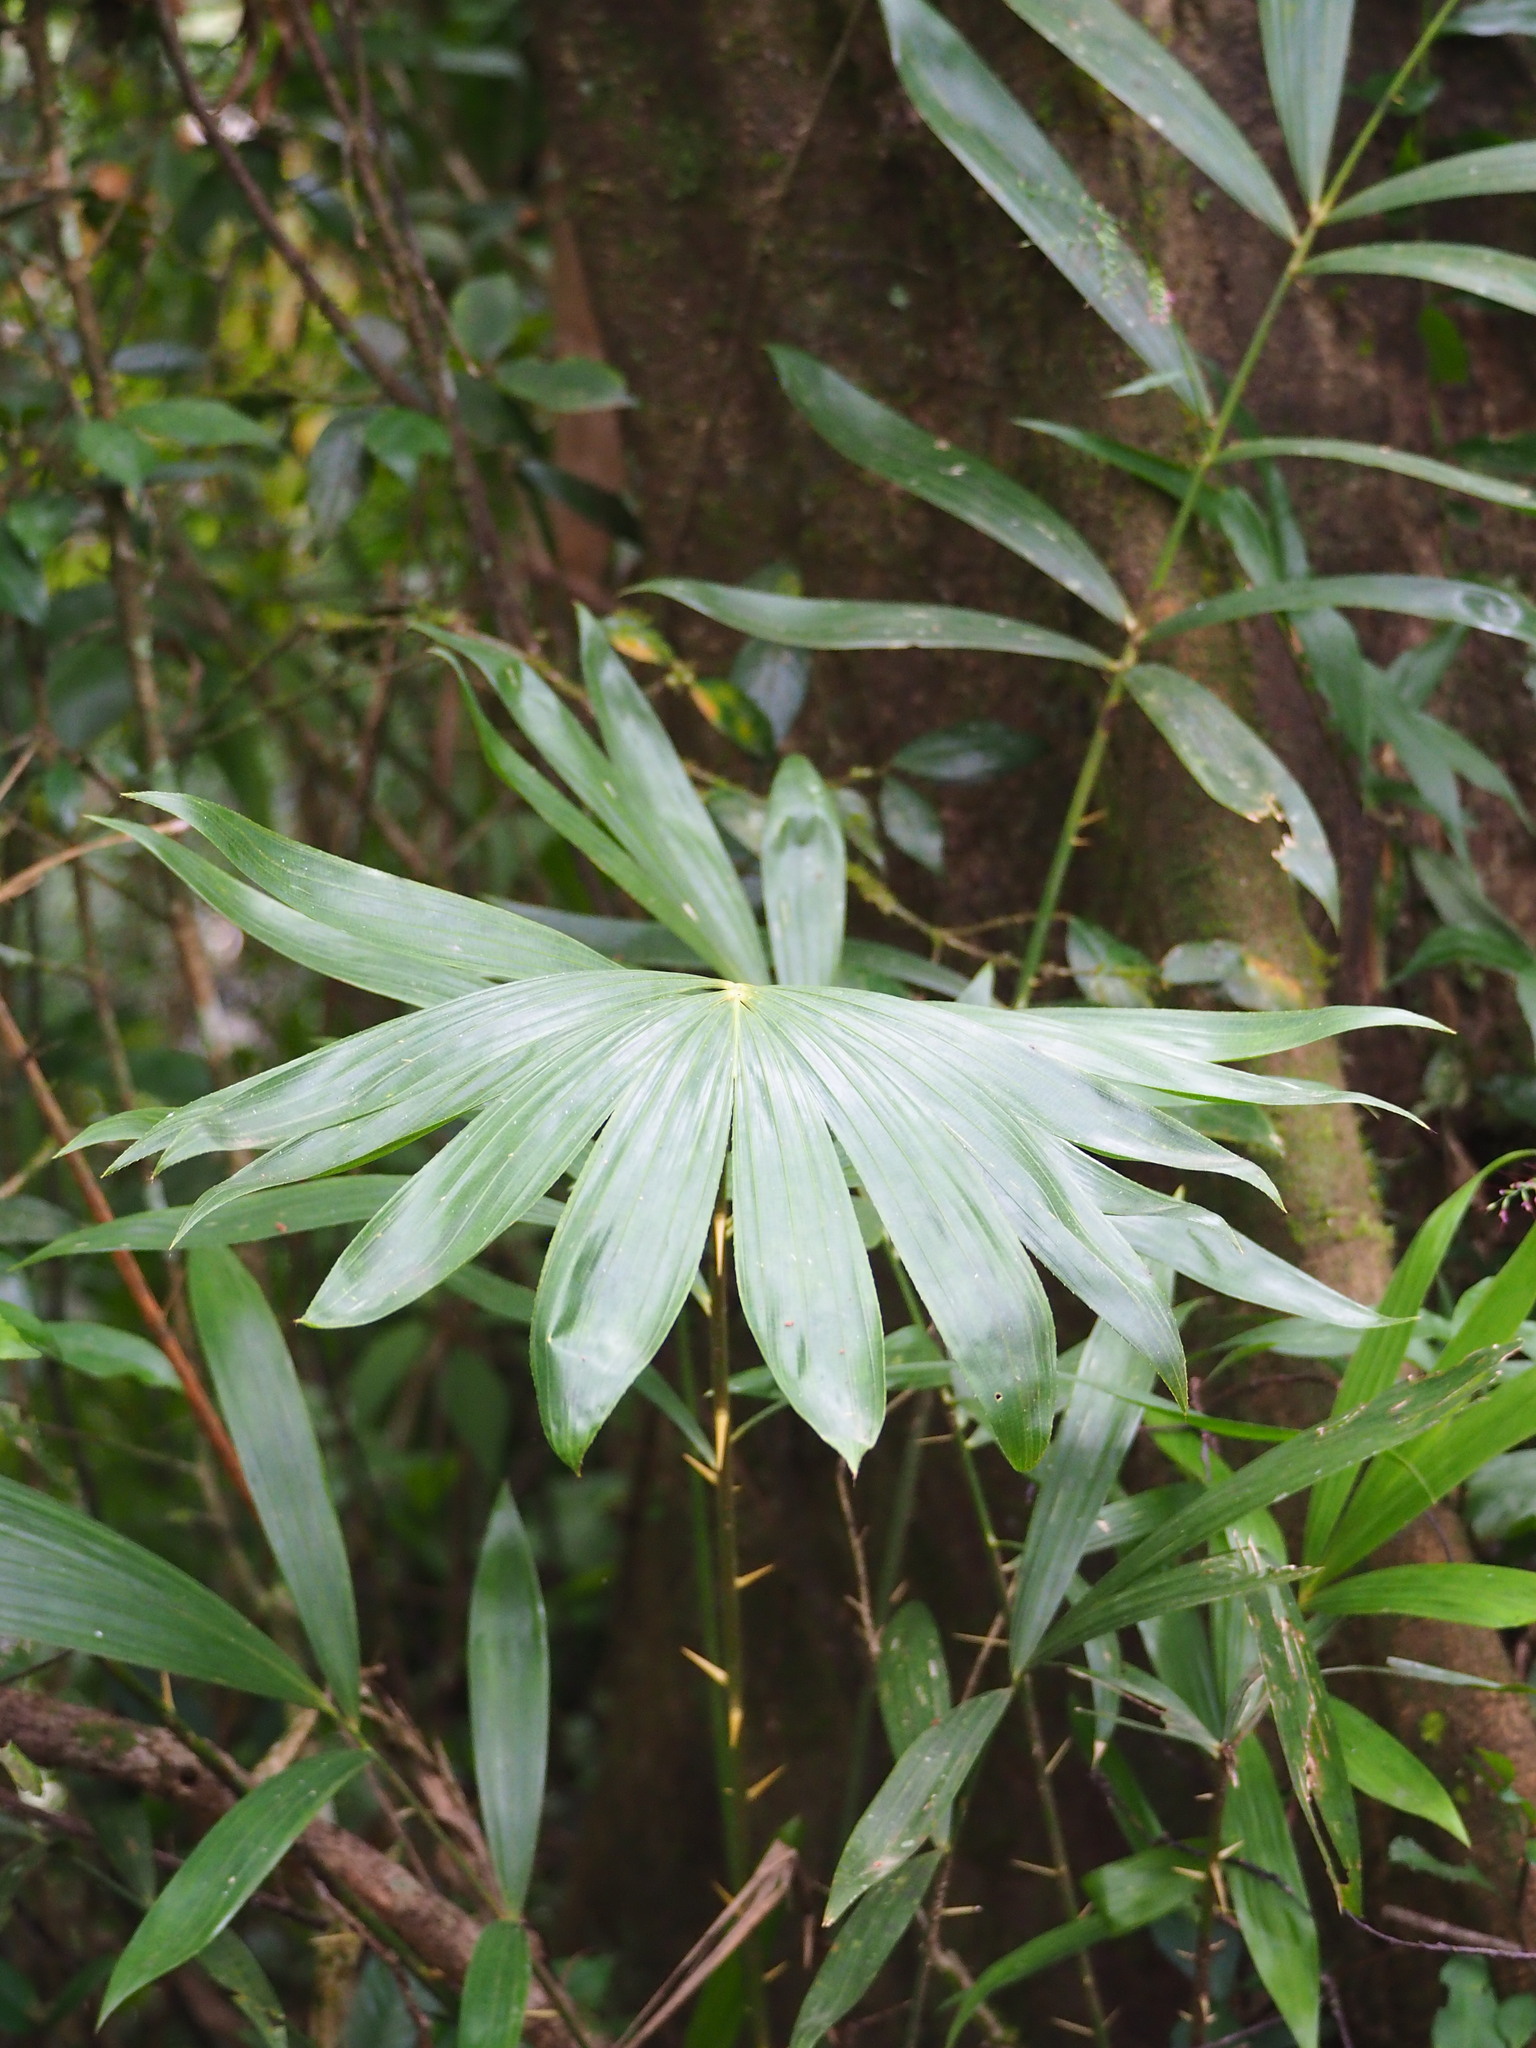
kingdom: Plantae
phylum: Tracheophyta
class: Liliopsida
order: Arecales
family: Arecaceae
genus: Calamus
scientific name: Calamus formosanus
